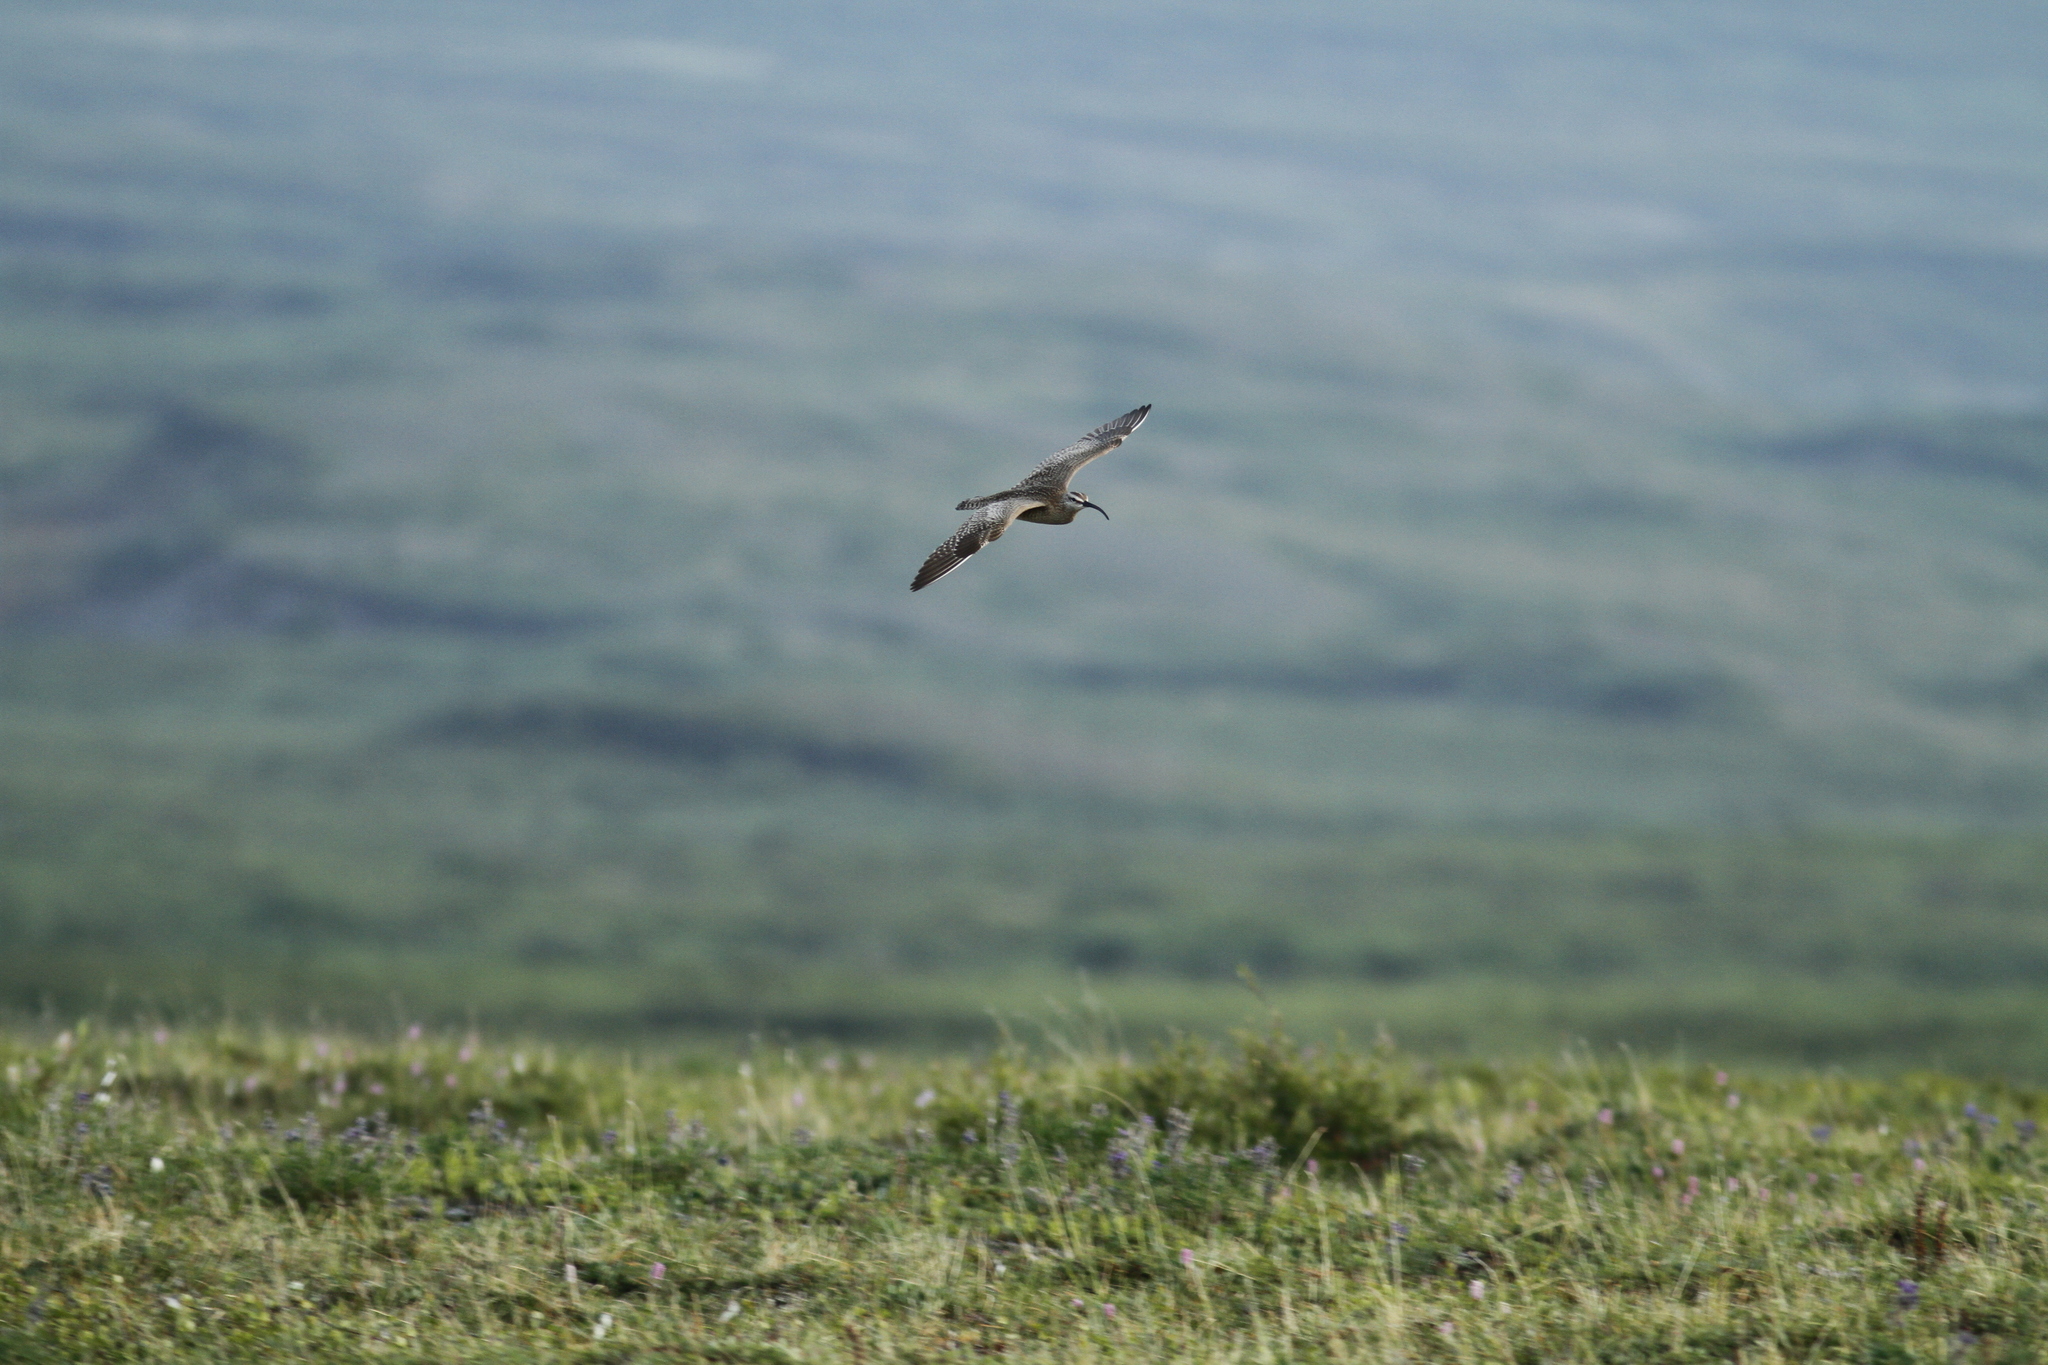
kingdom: Animalia
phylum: Chordata
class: Aves
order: Charadriiformes
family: Scolopacidae
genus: Numenius
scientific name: Numenius hudsonicus
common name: Hudsonian whimbrel
